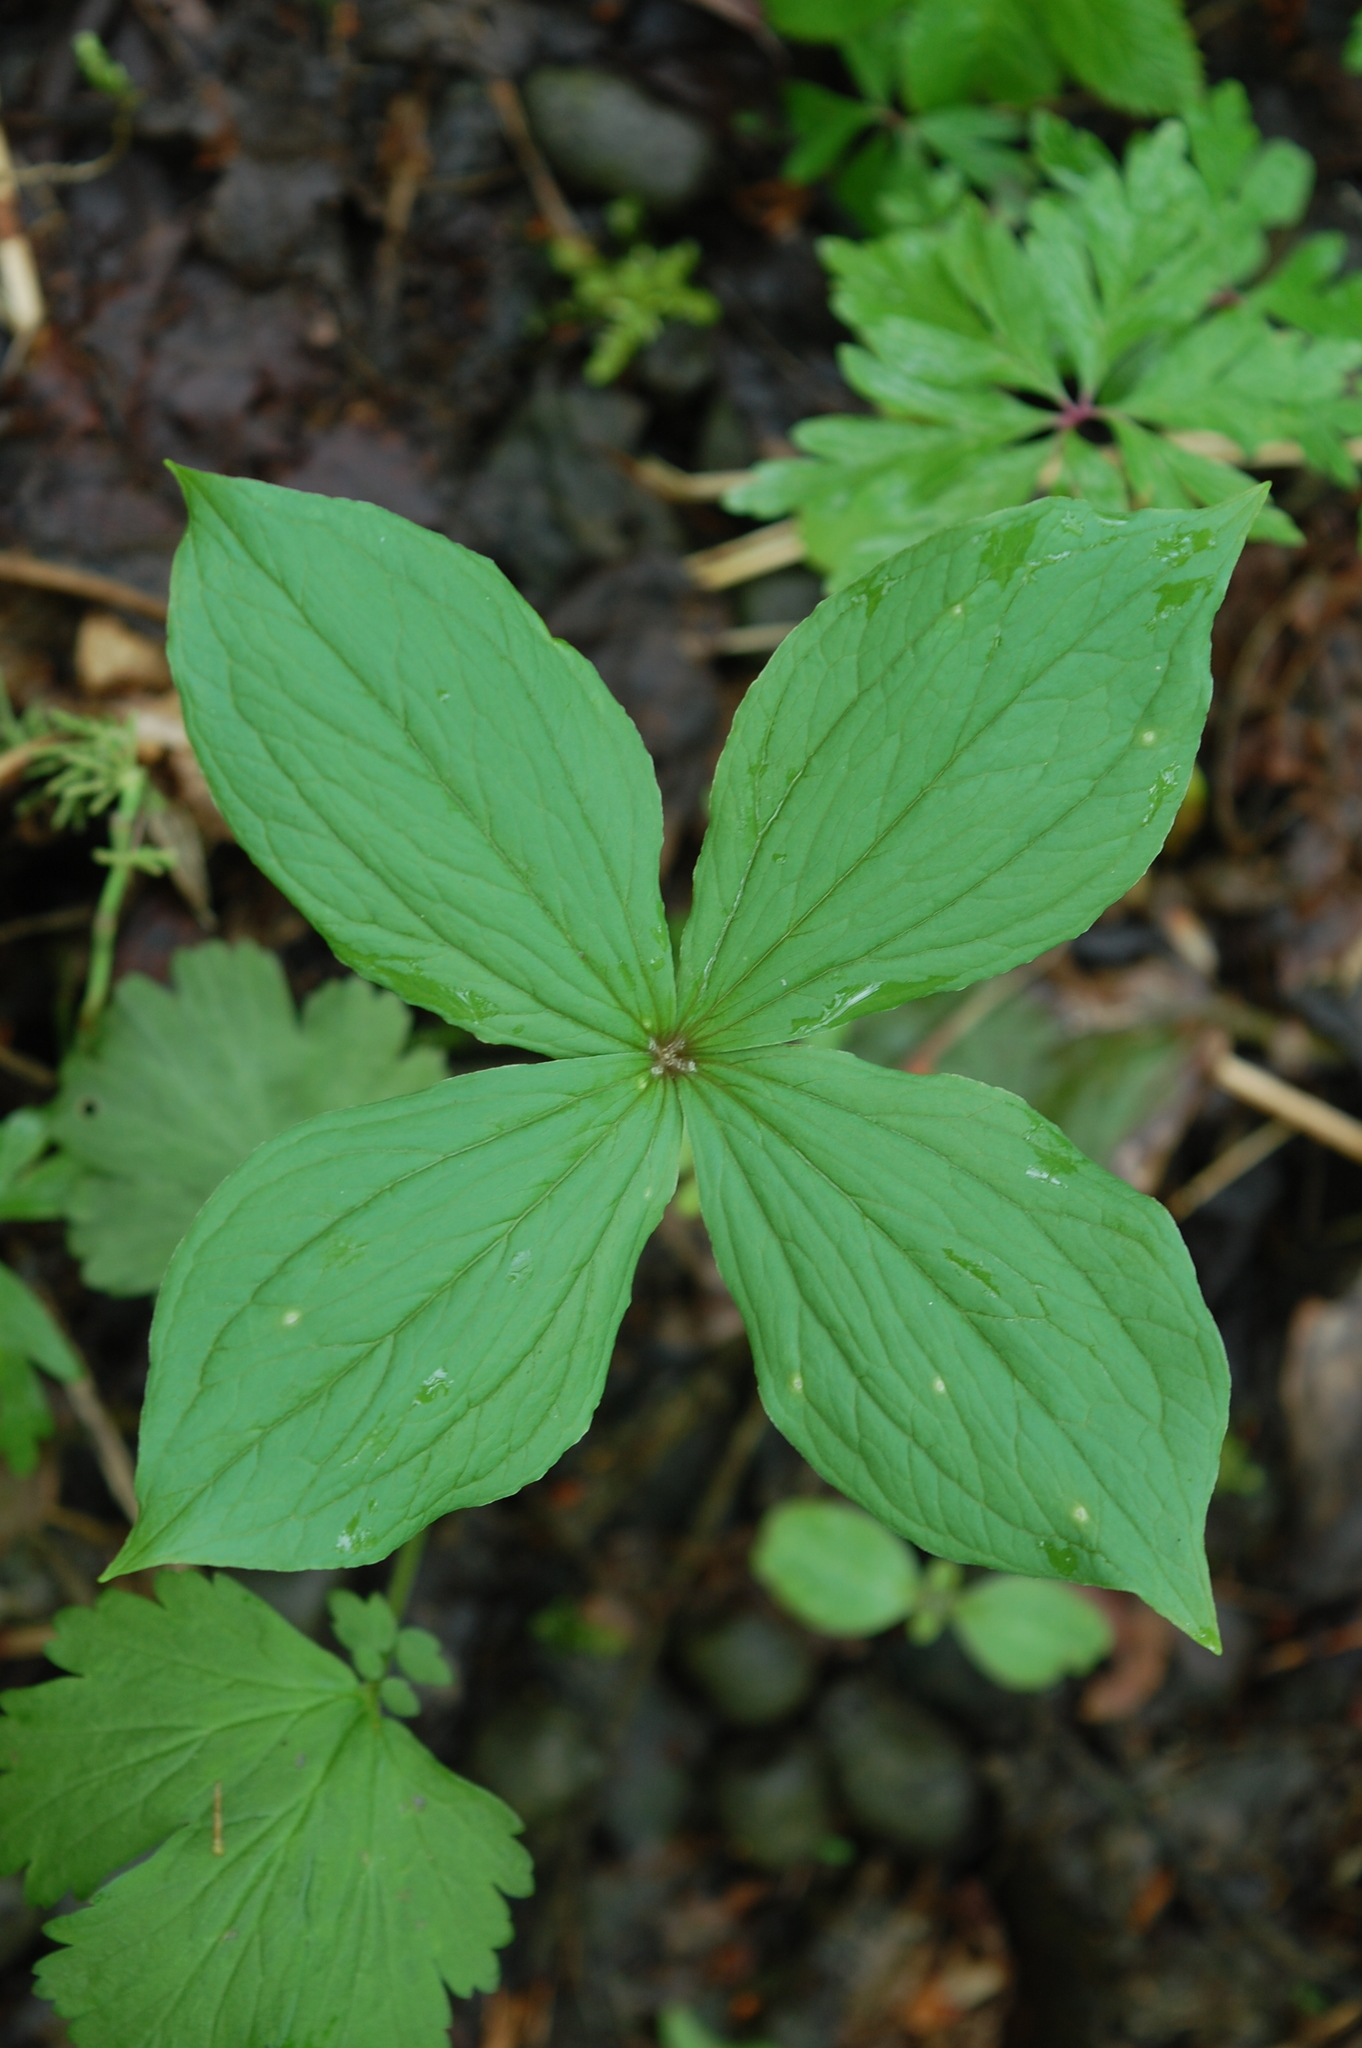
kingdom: Plantae
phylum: Tracheophyta
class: Liliopsida
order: Liliales
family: Melanthiaceae
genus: Paris
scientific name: Paris quadrifolia
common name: Herb-paris
